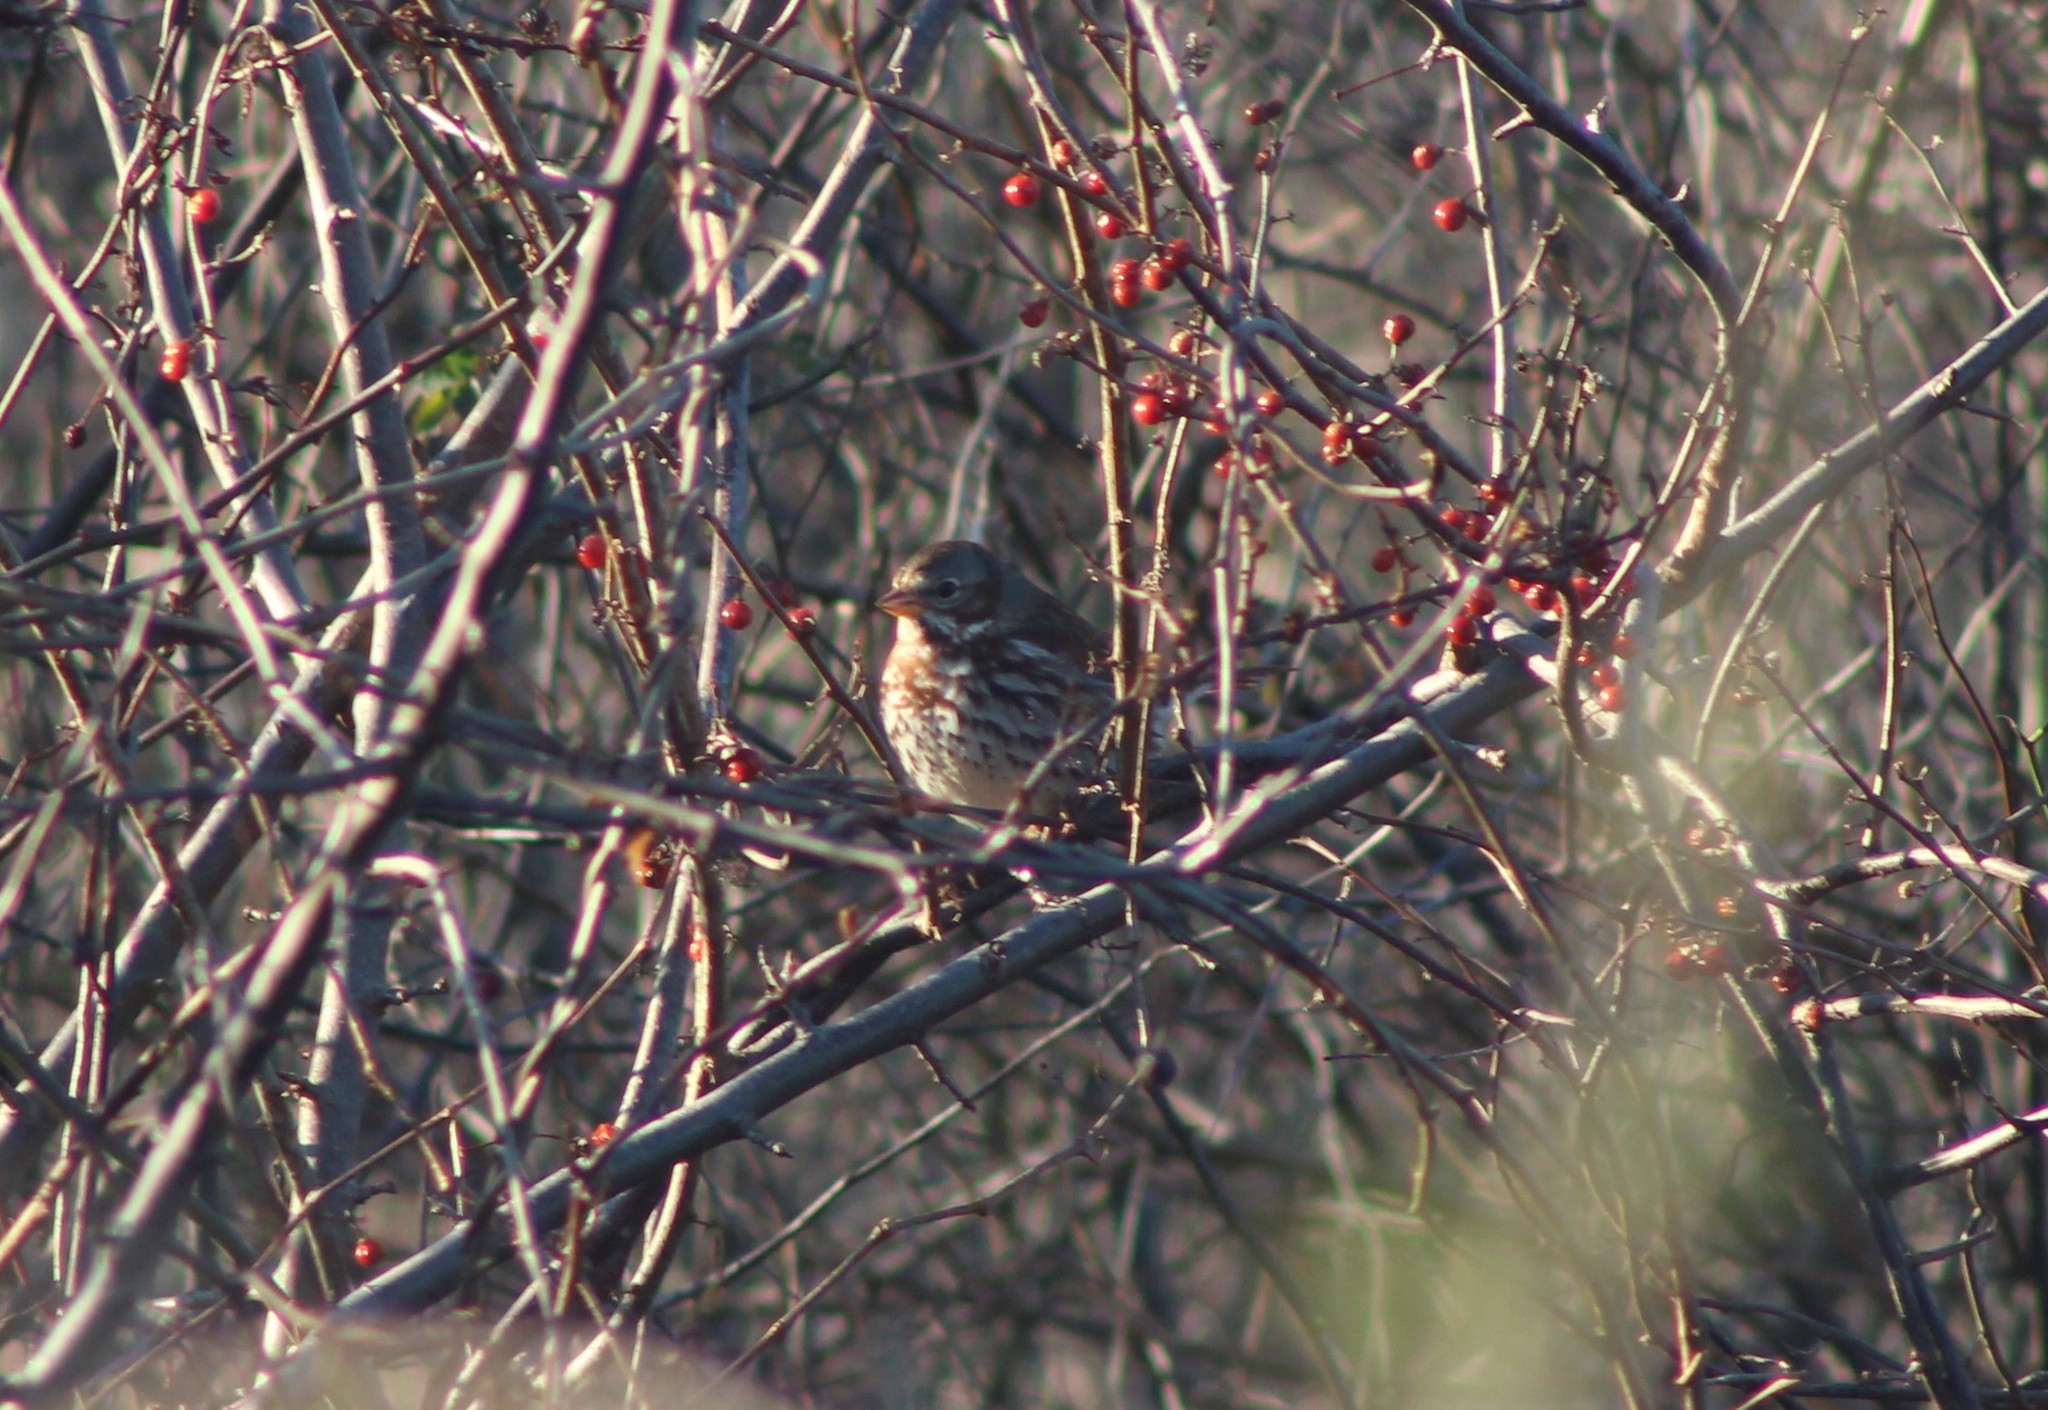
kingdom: Animalia
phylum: Chordata
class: Aves
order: Passeriformes
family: Passerellidae
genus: Passerella
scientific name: Passerella iliaca
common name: Fox sparrow
